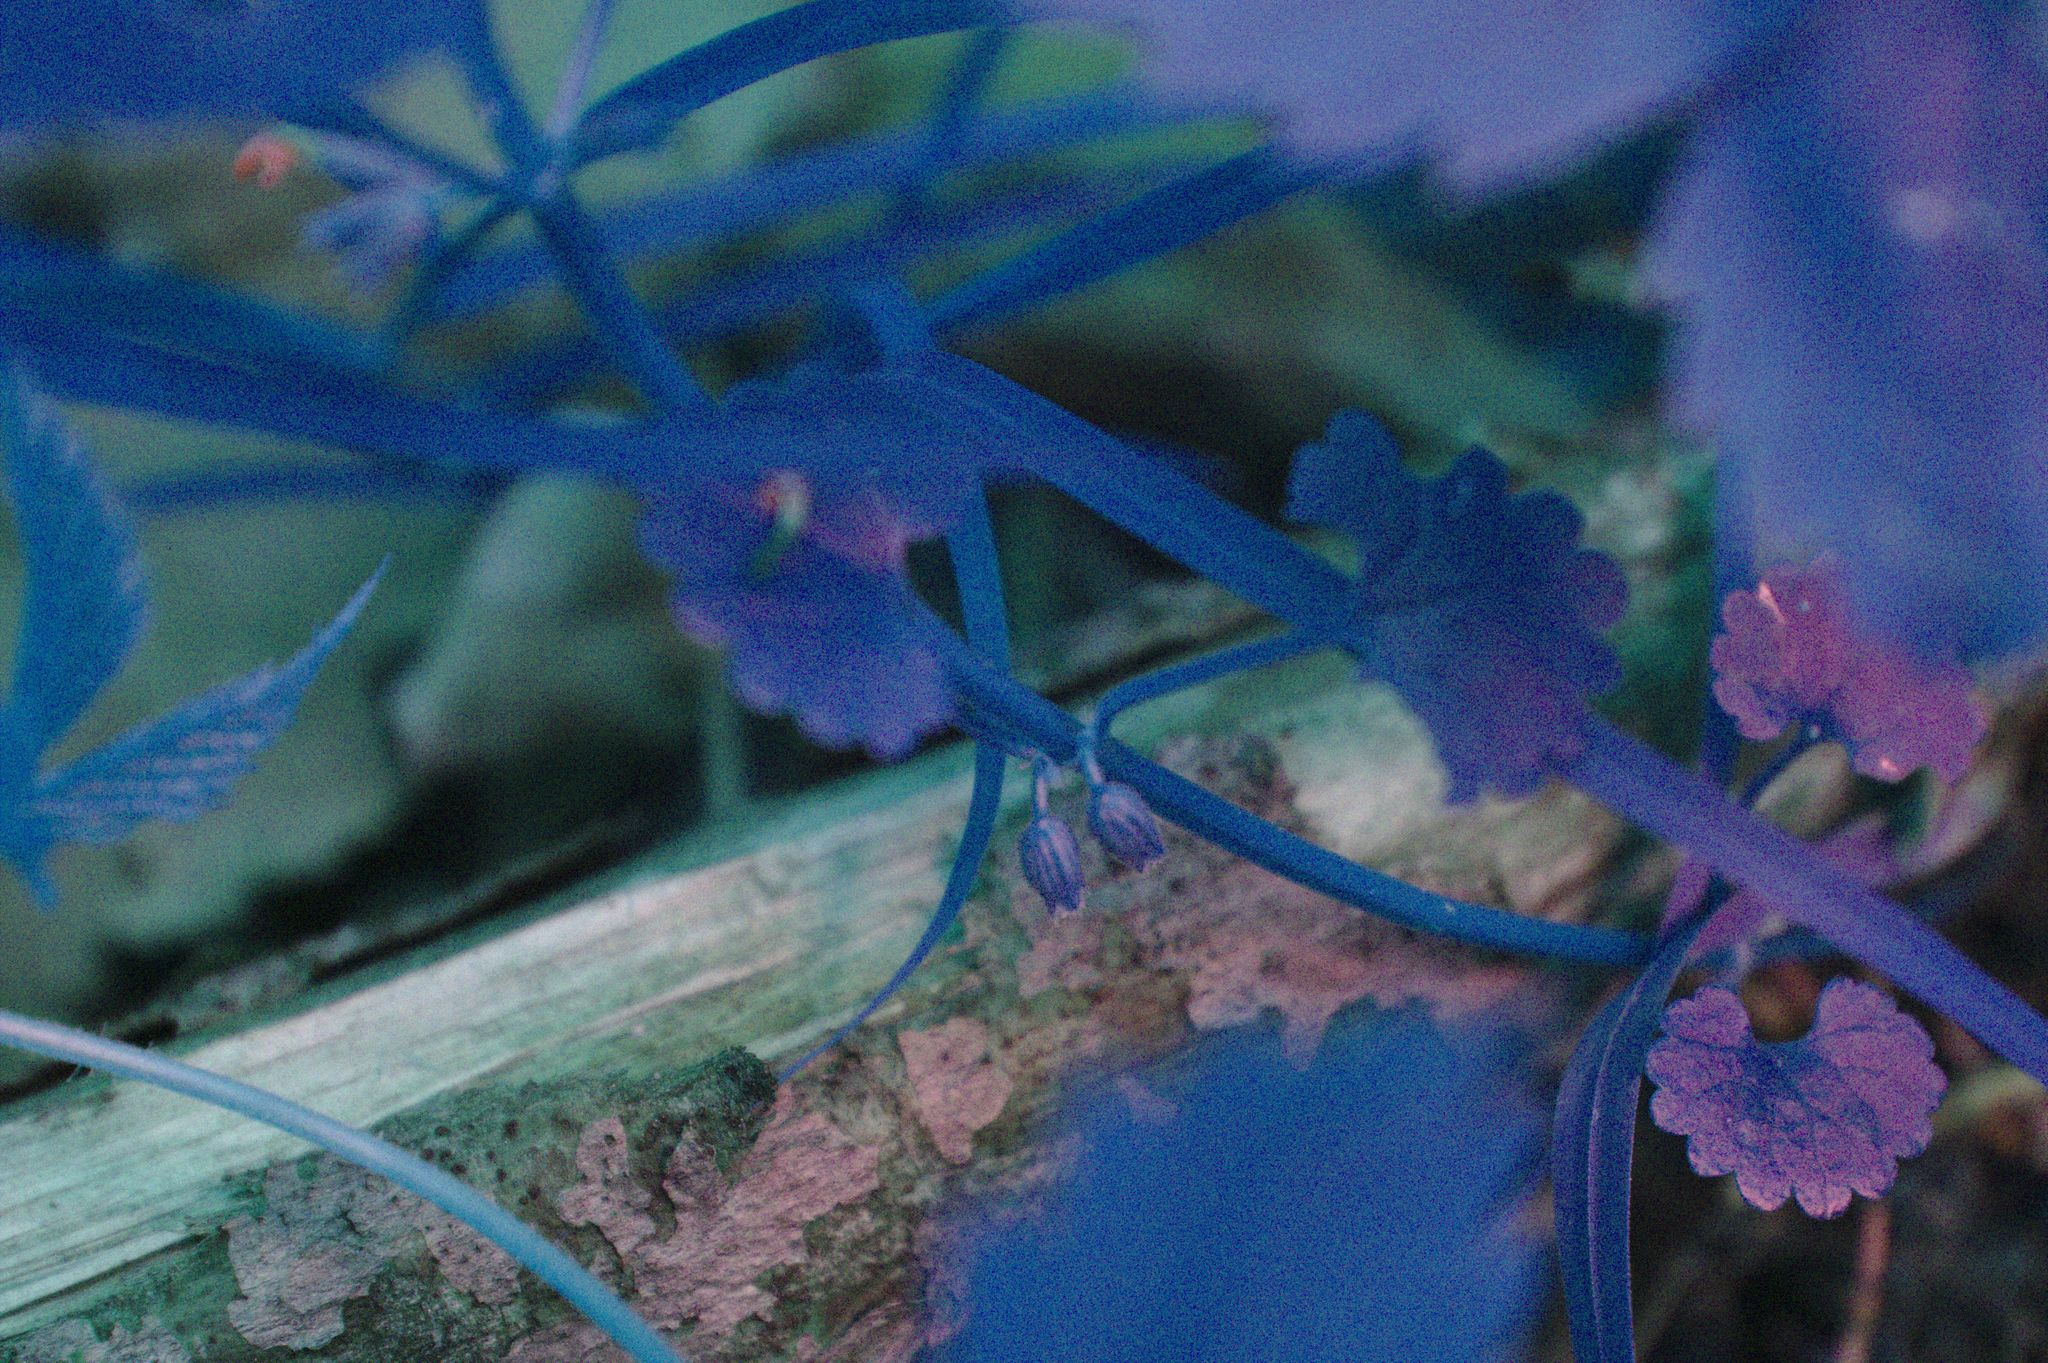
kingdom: Plantae
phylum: Tracheophyta
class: Magnoliopsida
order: Lamiales
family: Lamiaceae
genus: Glechoma
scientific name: Glechoma hederacea
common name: Ground ivy
